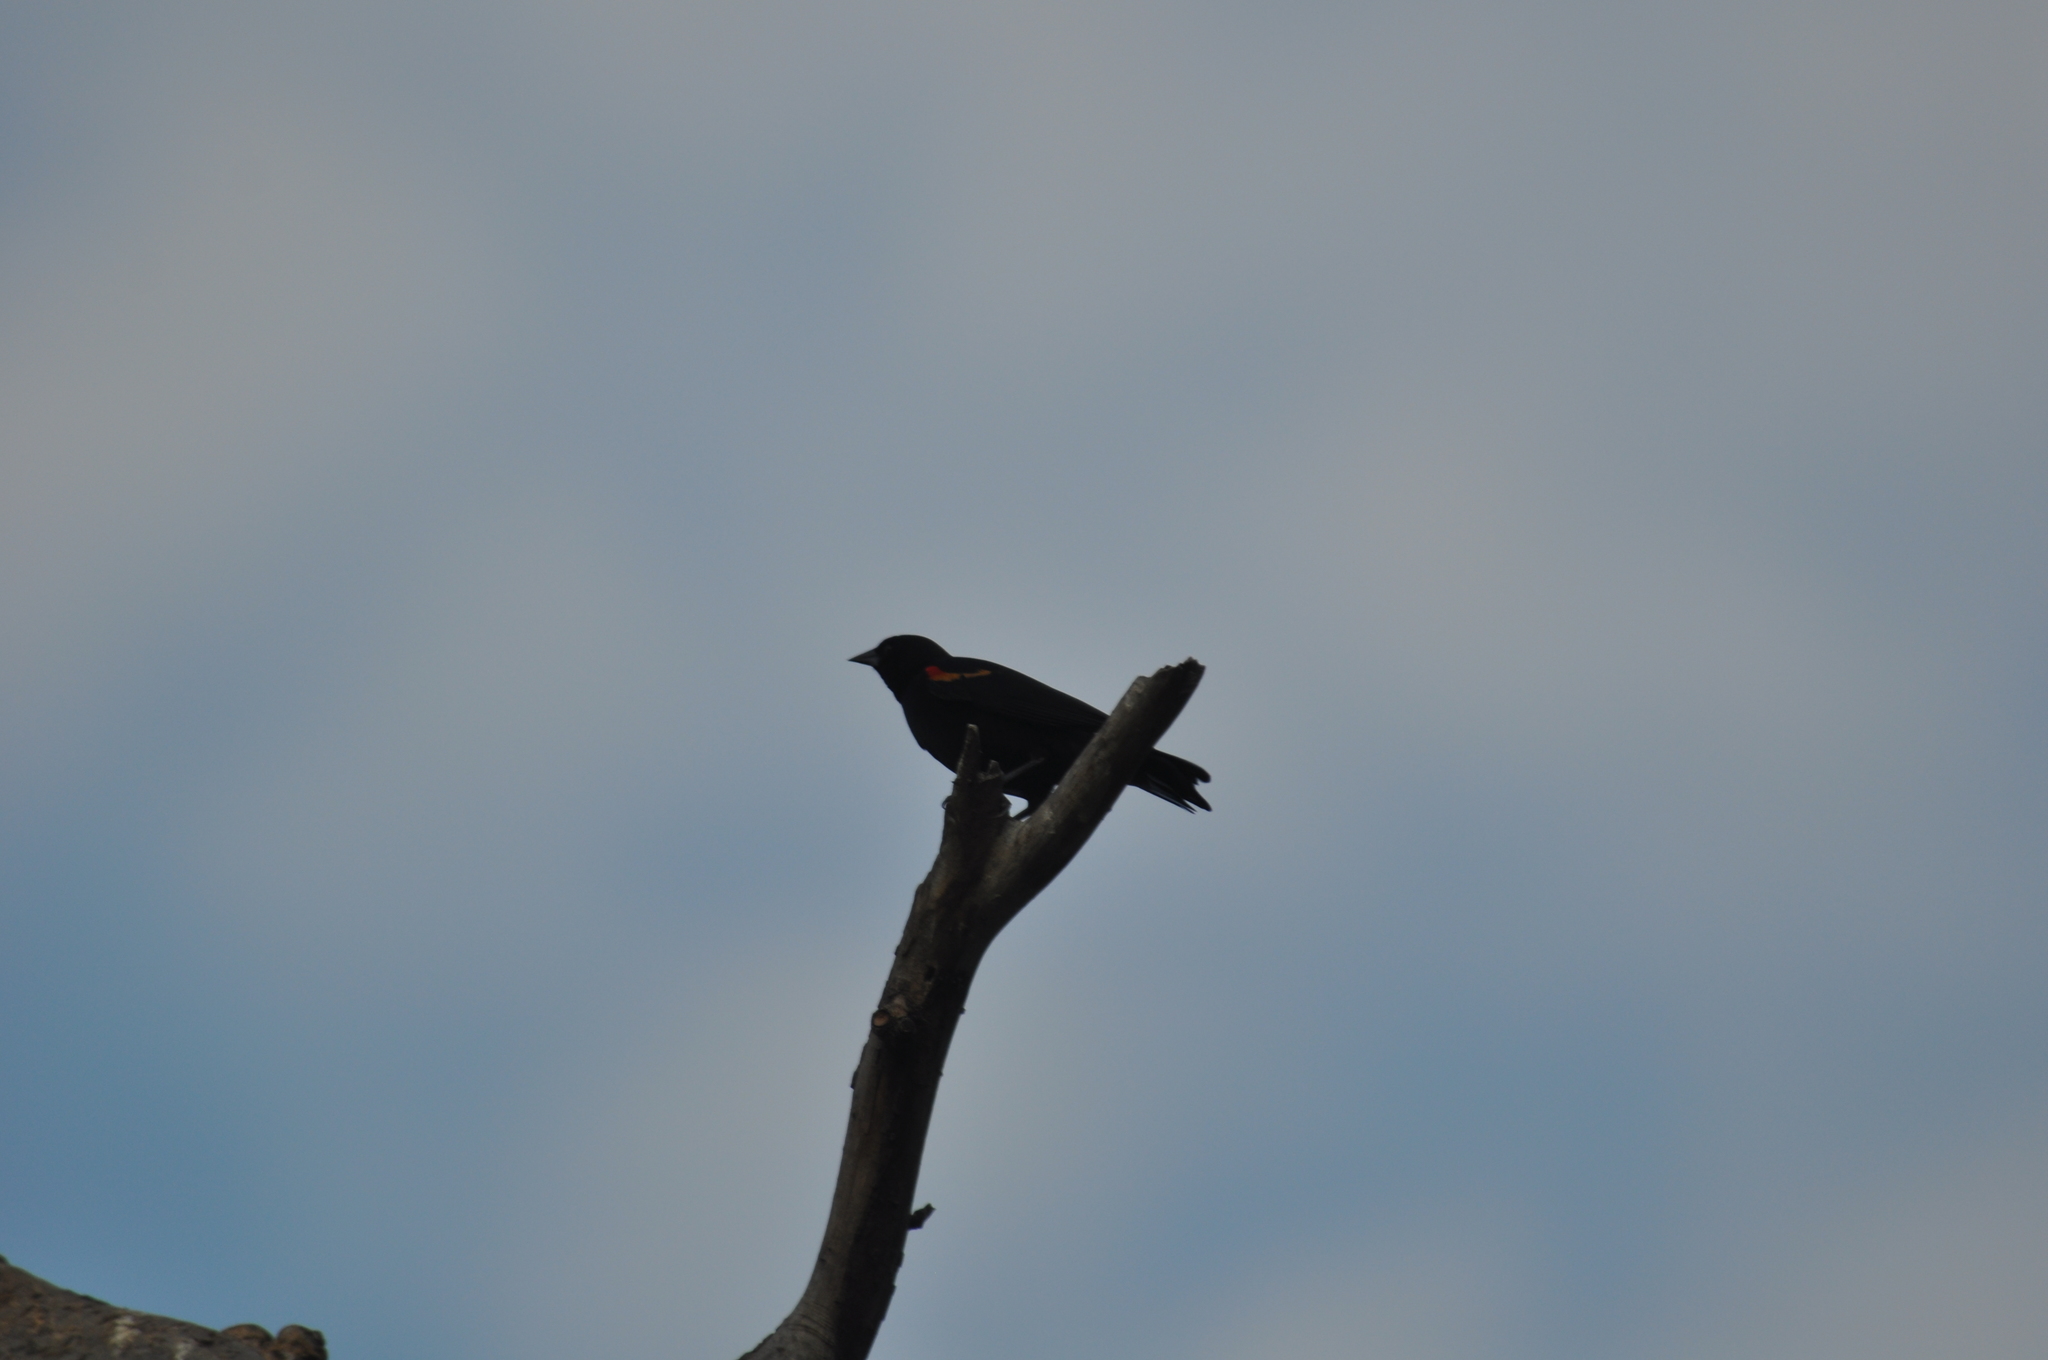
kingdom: Animalia
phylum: Chordata
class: Aves
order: Passeriformes
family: Icteridae
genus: Agelaius
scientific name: Agelaius phoeniceus
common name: Red-winged blackbird
